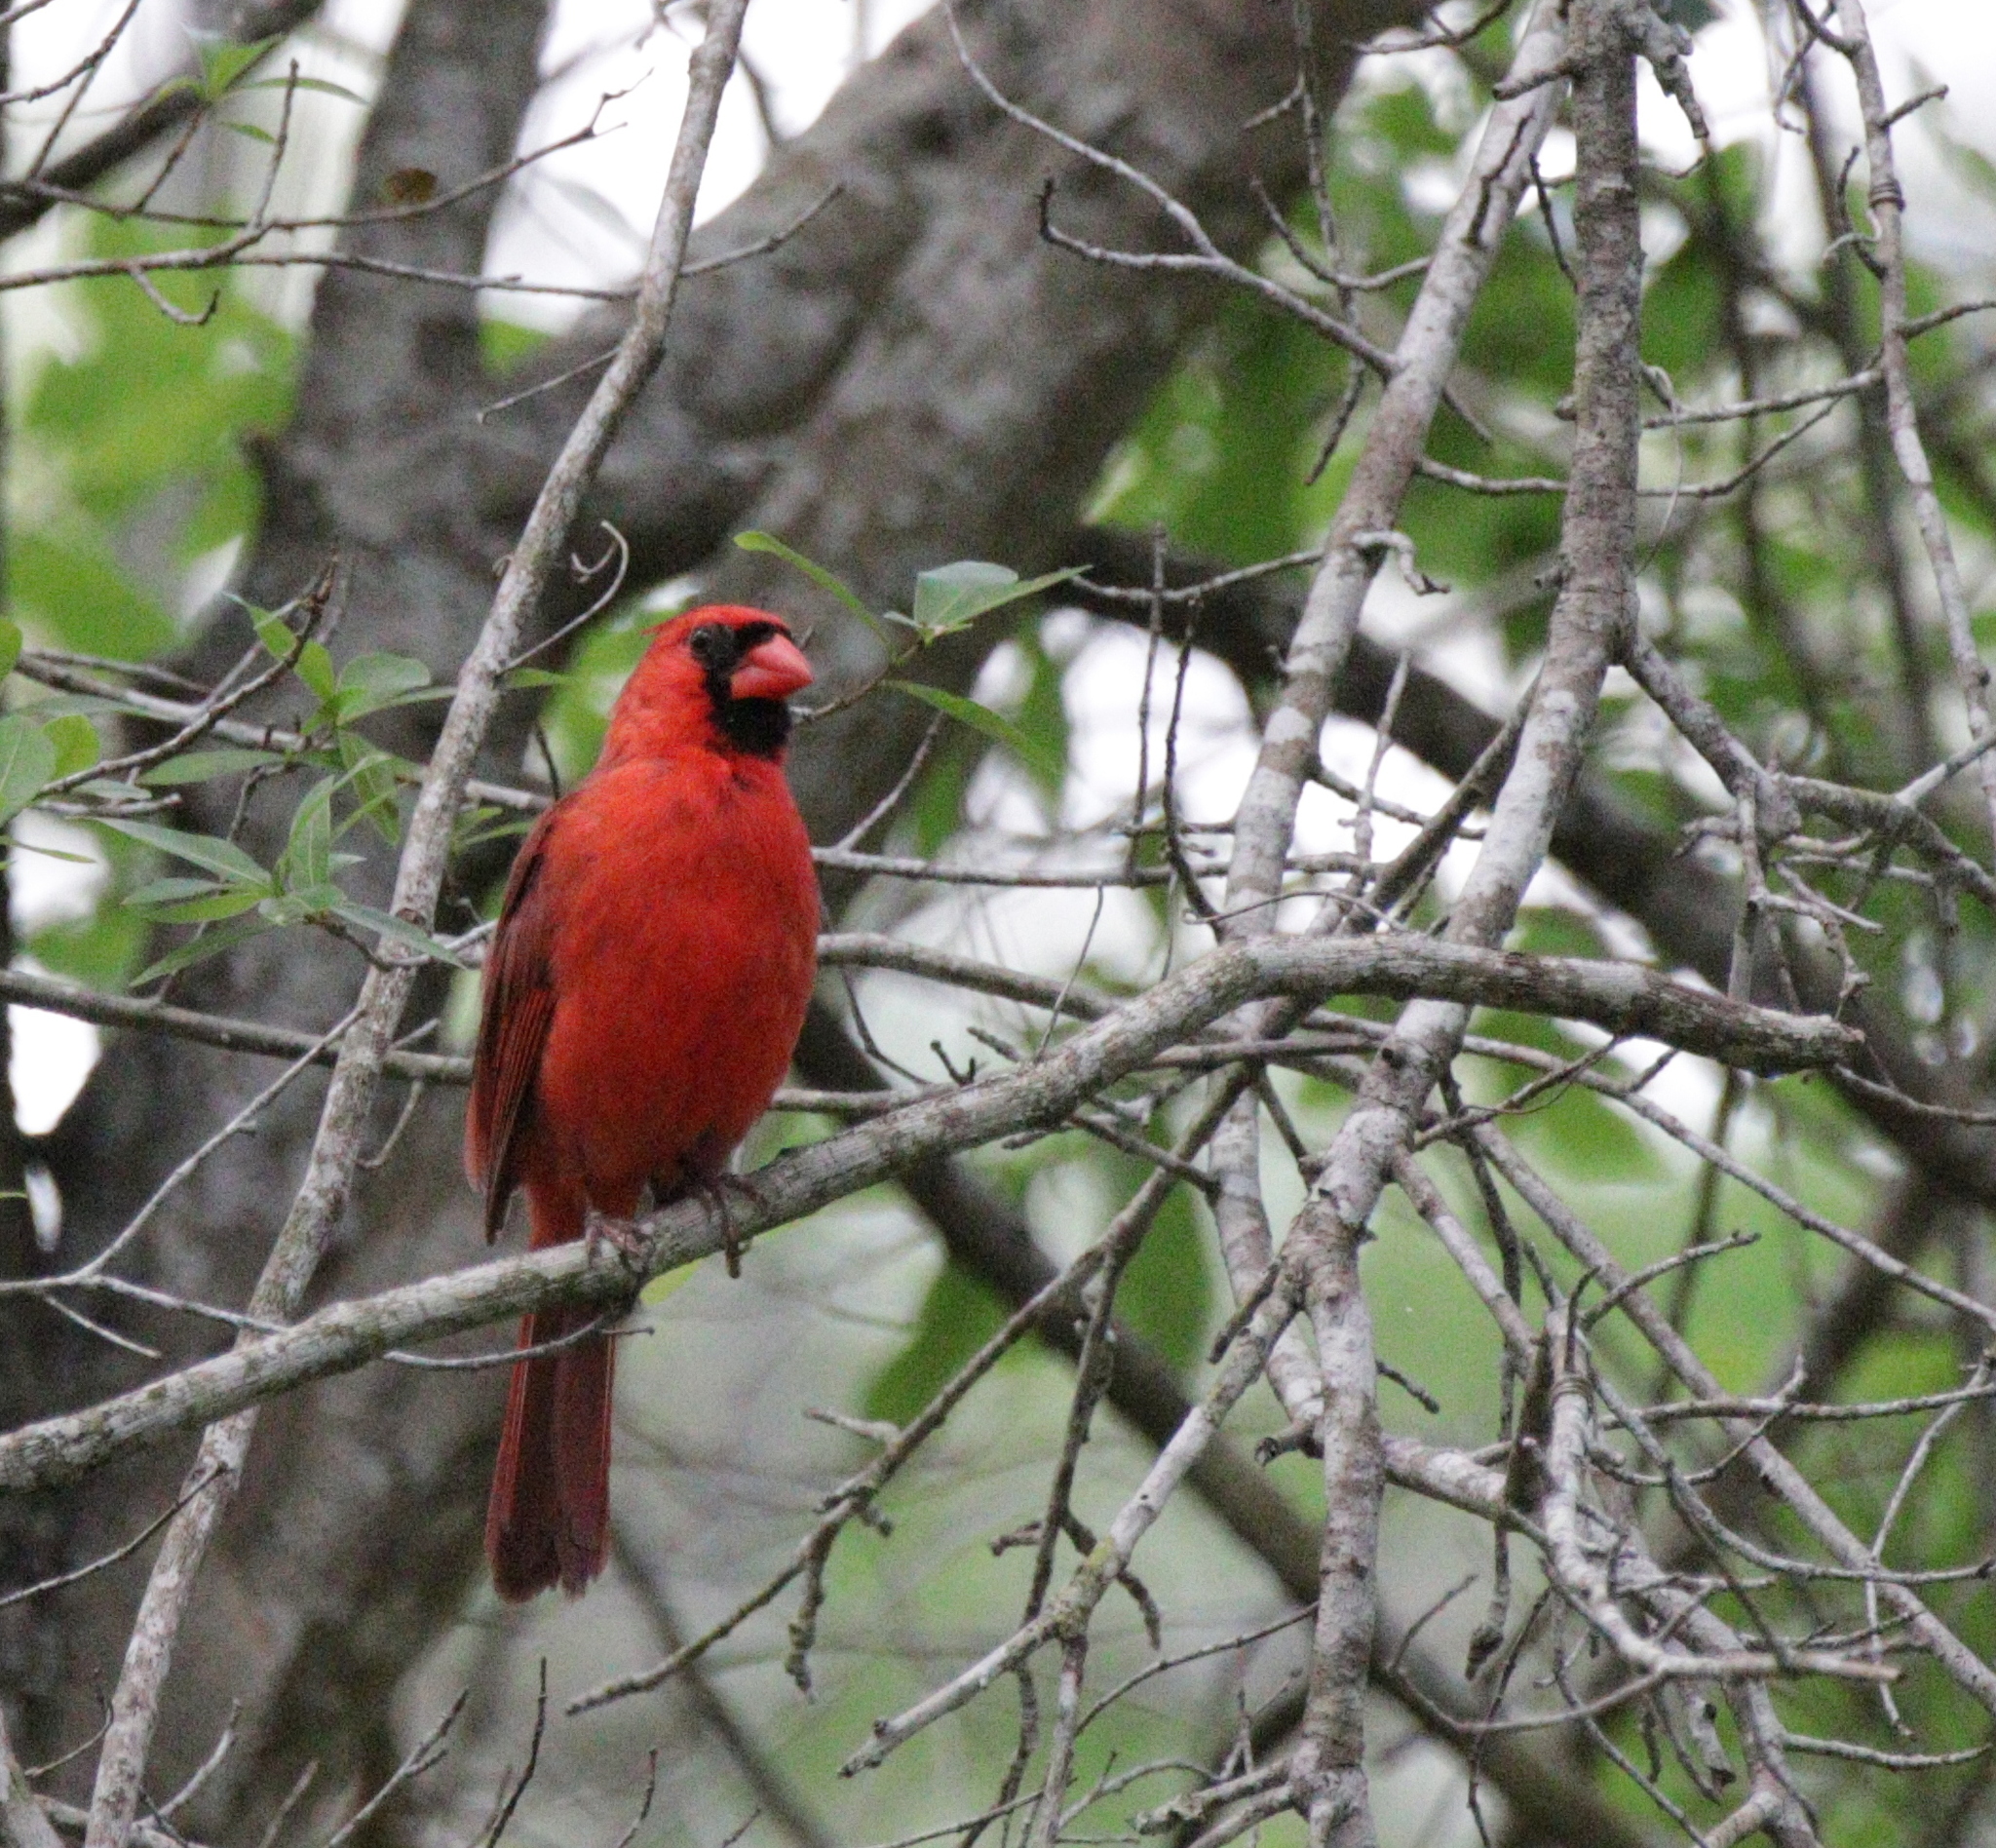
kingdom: Animalia
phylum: Chordata
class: Aves
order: Passeriformes
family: Cardinalidae
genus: Cardinalis
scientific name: Cardinalis cardinalis
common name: Northern cardinal
